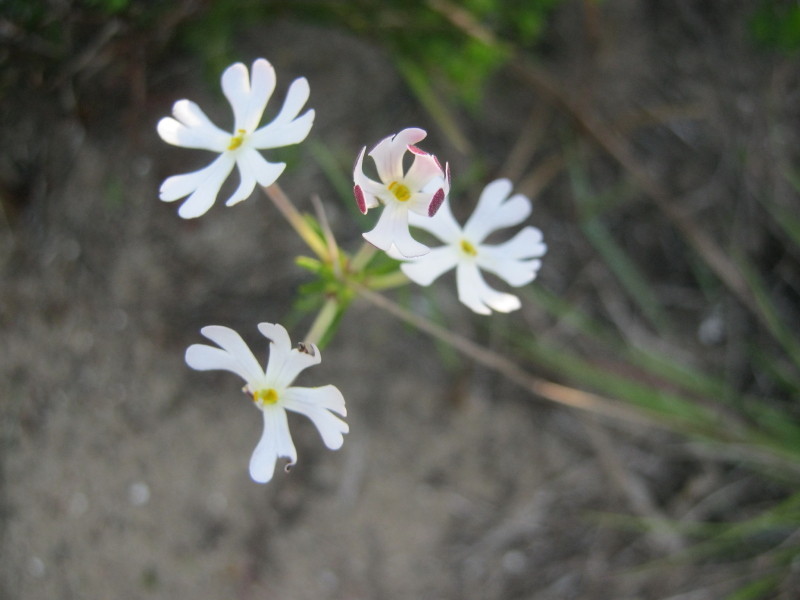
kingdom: Plantae
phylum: Tracheophyta
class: Magnoliopsida
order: Lamiales
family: Scrophulariaceae
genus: Zaluzianskya
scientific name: Zaluzianskya capensis
